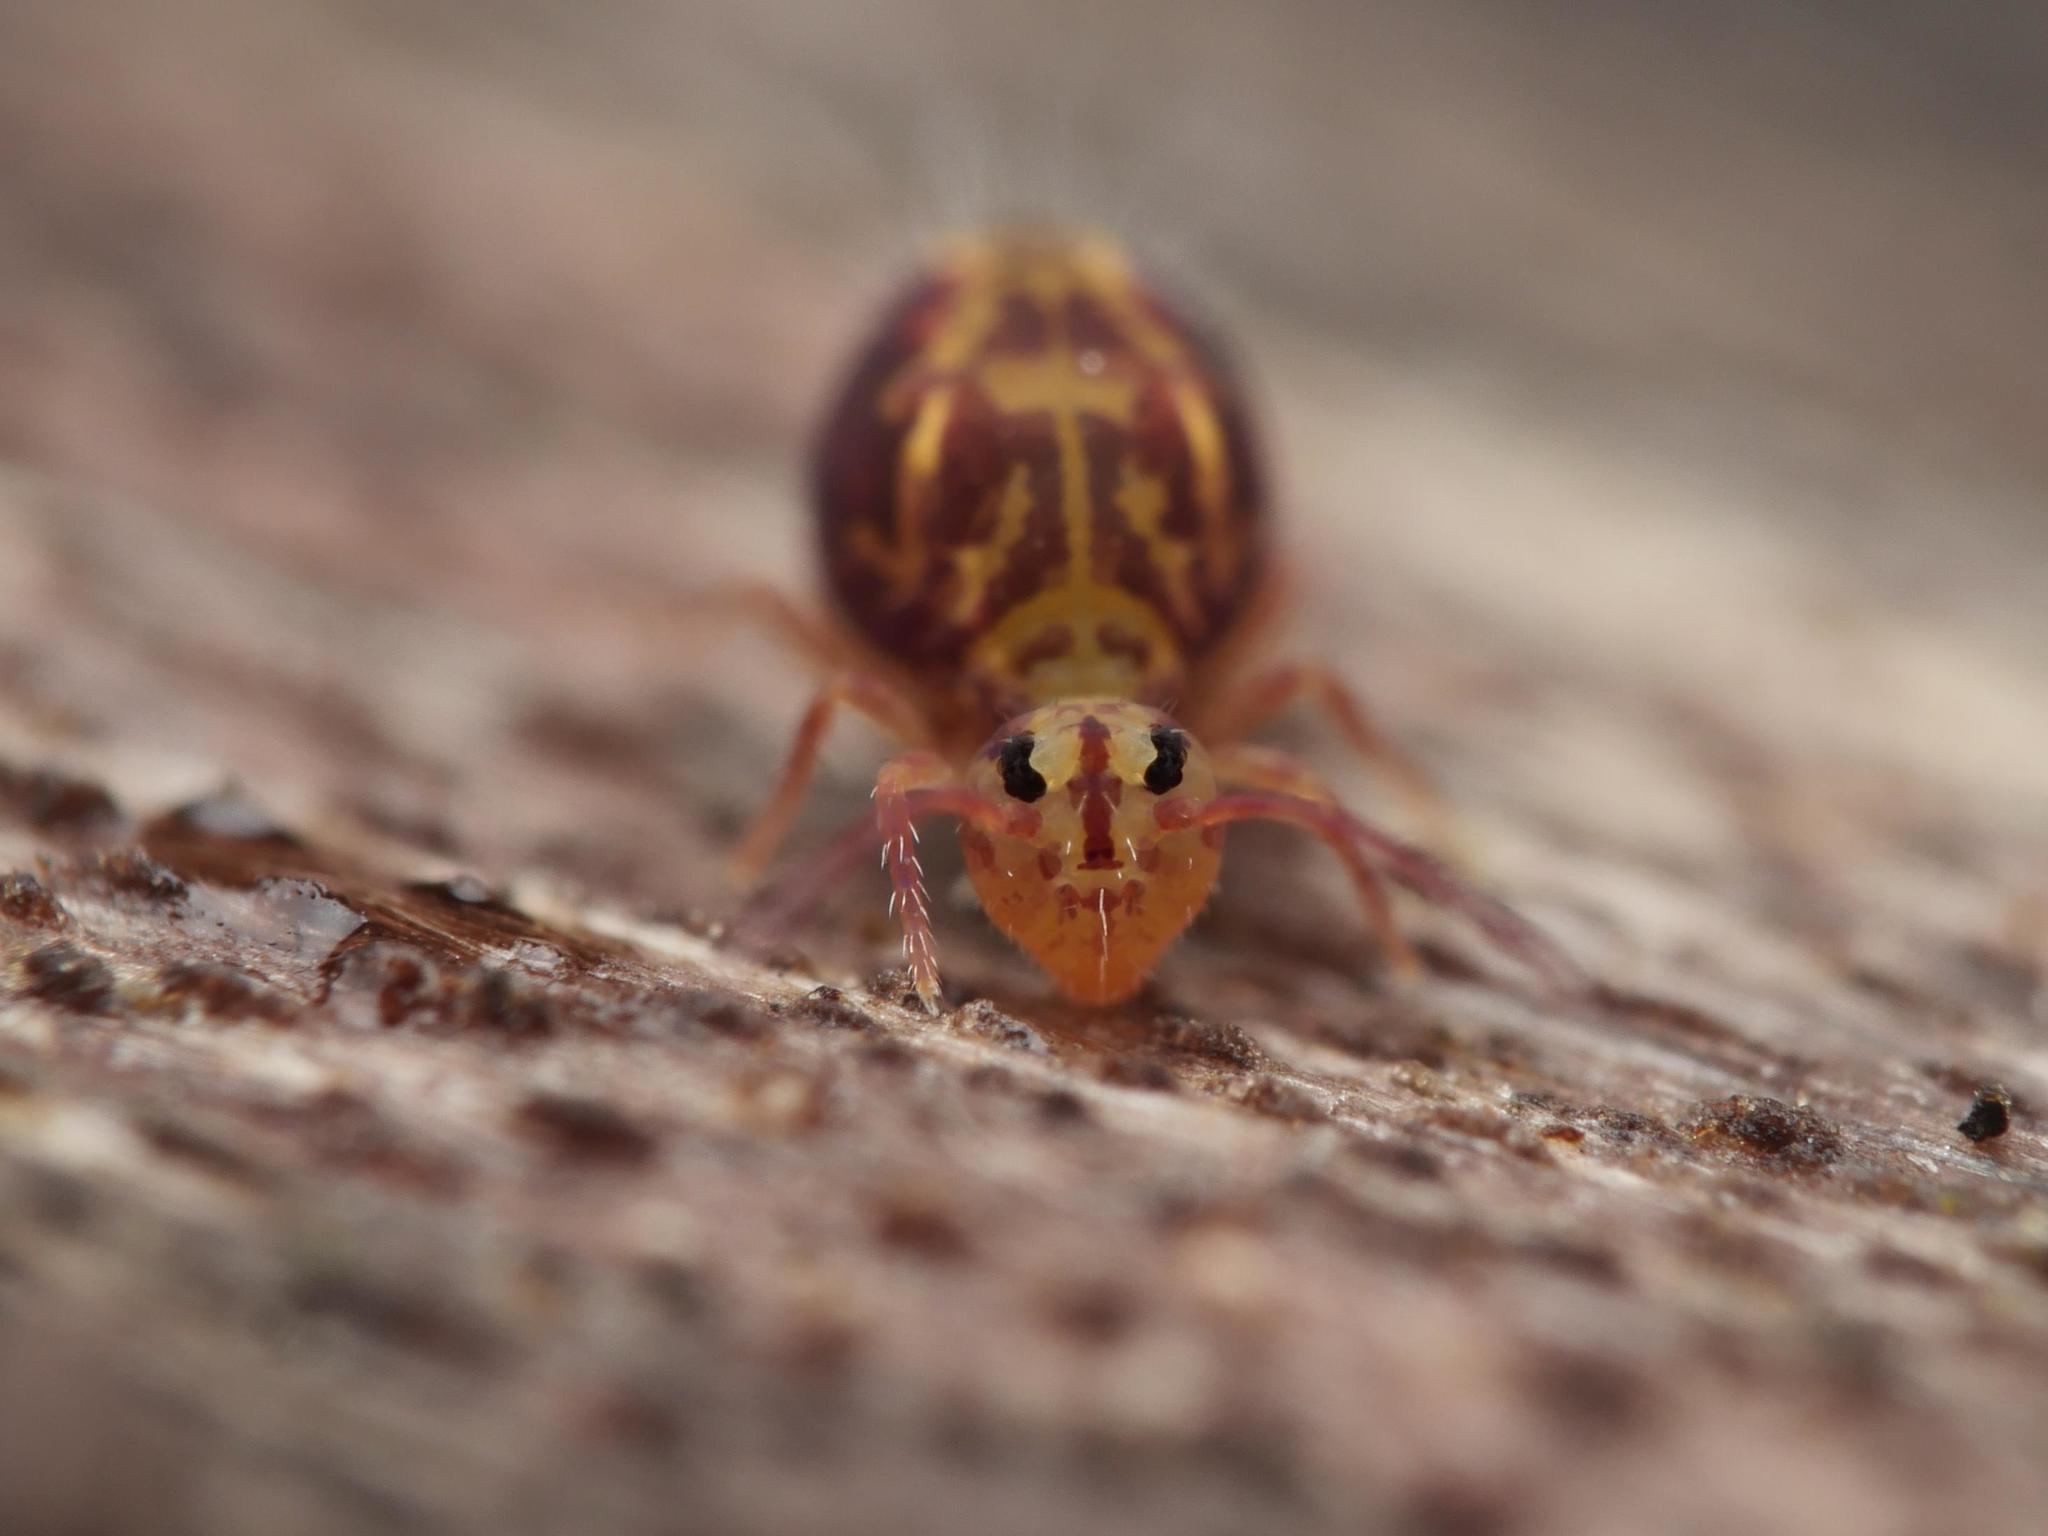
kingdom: Animalia
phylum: Arthropoda
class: Collembola
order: Symphypleona
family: Dicyrtomidae
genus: Dicyrtomina
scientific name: Dicyrtomina ornata
